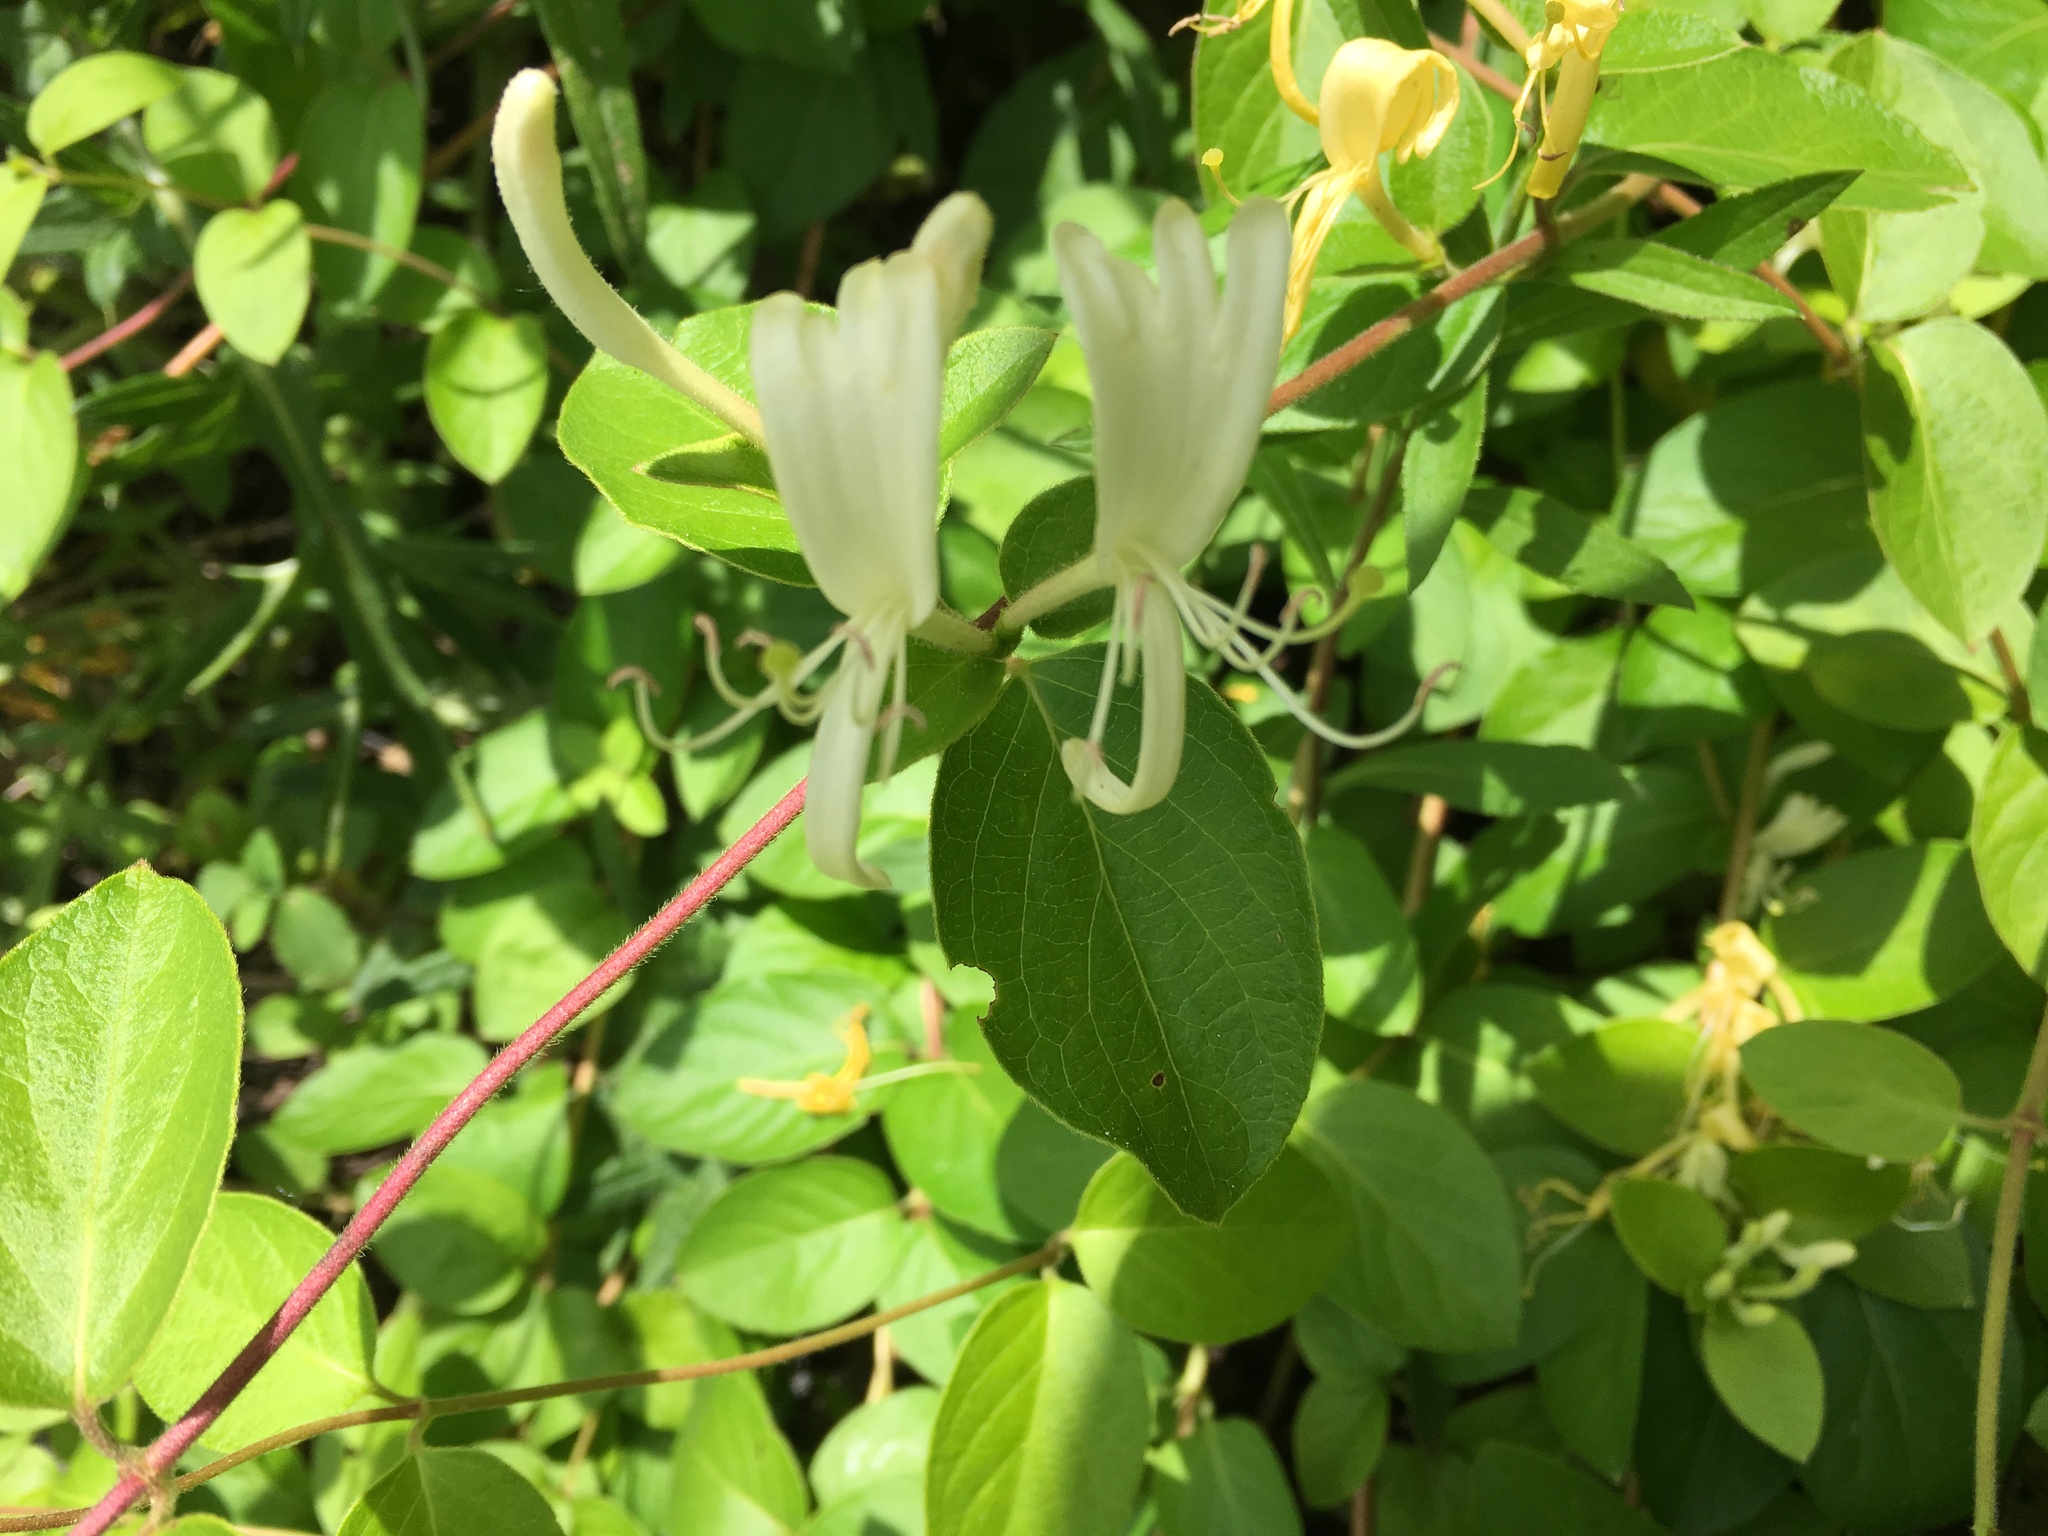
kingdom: Plantae
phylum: Tracheophyta
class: Magnoliopsida
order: Dipsacales
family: Caprifoliaceae
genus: Lonicera
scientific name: Lonicera japonica
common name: Japanese honeysuckle
